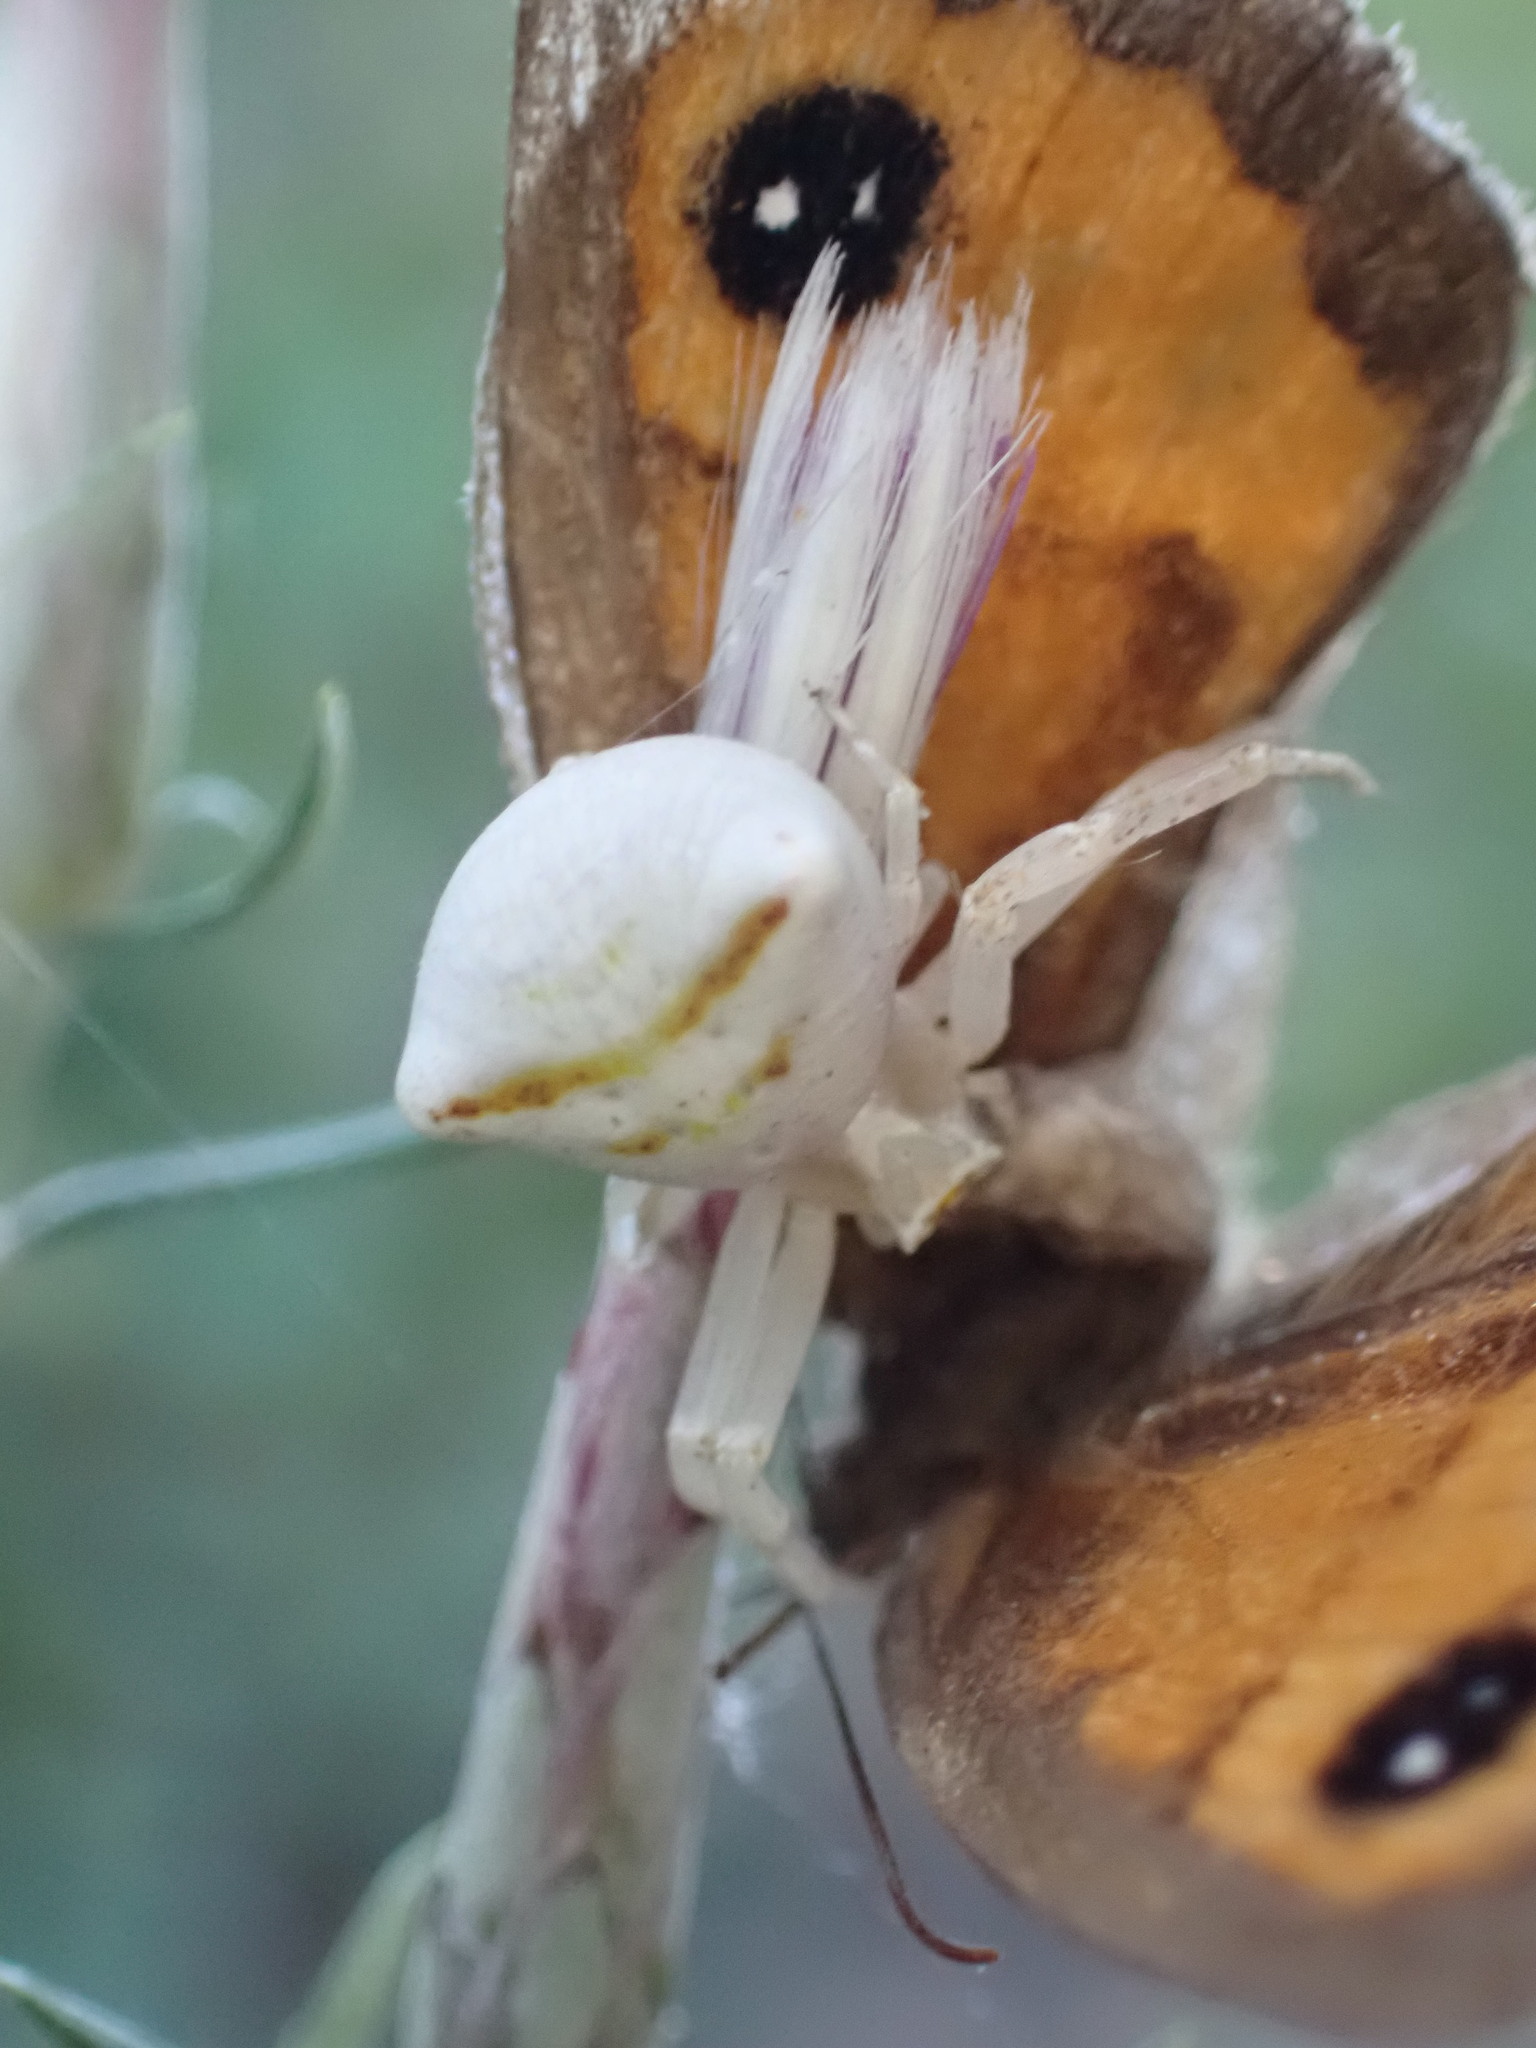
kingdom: Animalia
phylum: Arthropoda
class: Arachnida
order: Araneae
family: Thomisidae
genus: Thomisus
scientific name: Thomisus onustus
